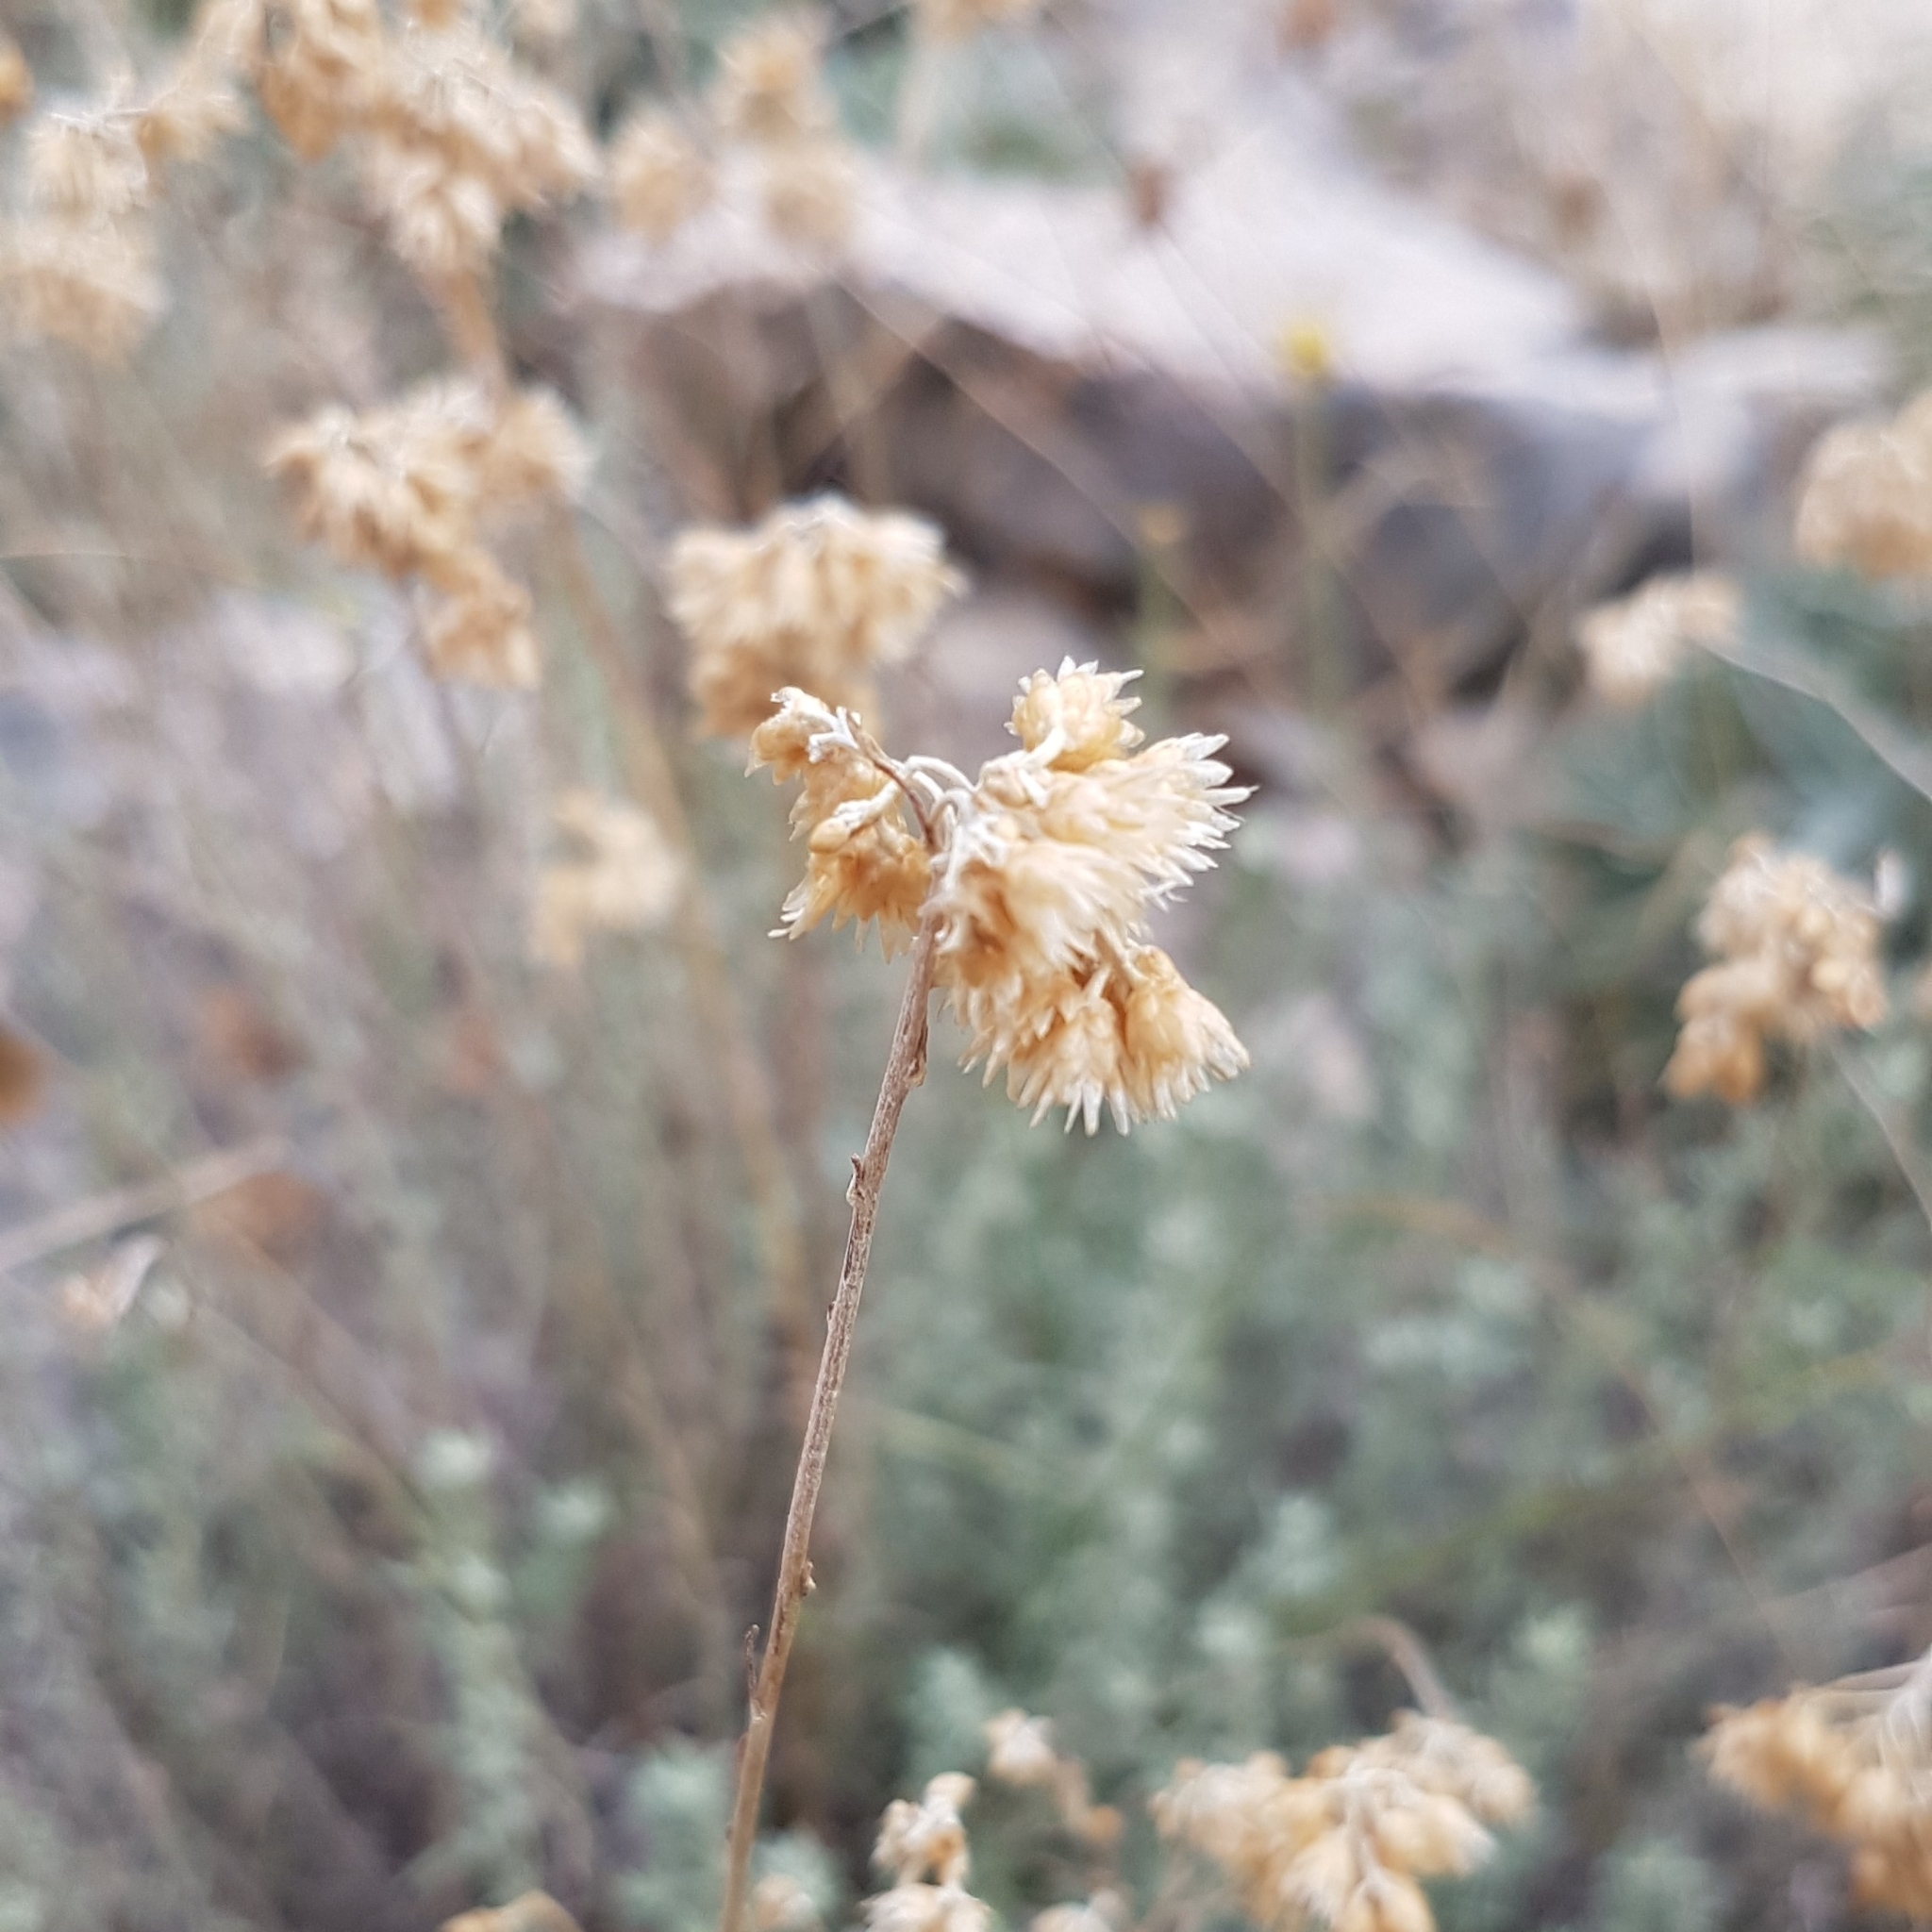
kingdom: Plantae
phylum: Tracheophyta
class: Magnoliopsida
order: Asterales
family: Asteraceae
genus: Helichrysum
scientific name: Helichrysum italicum
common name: Curryplant
